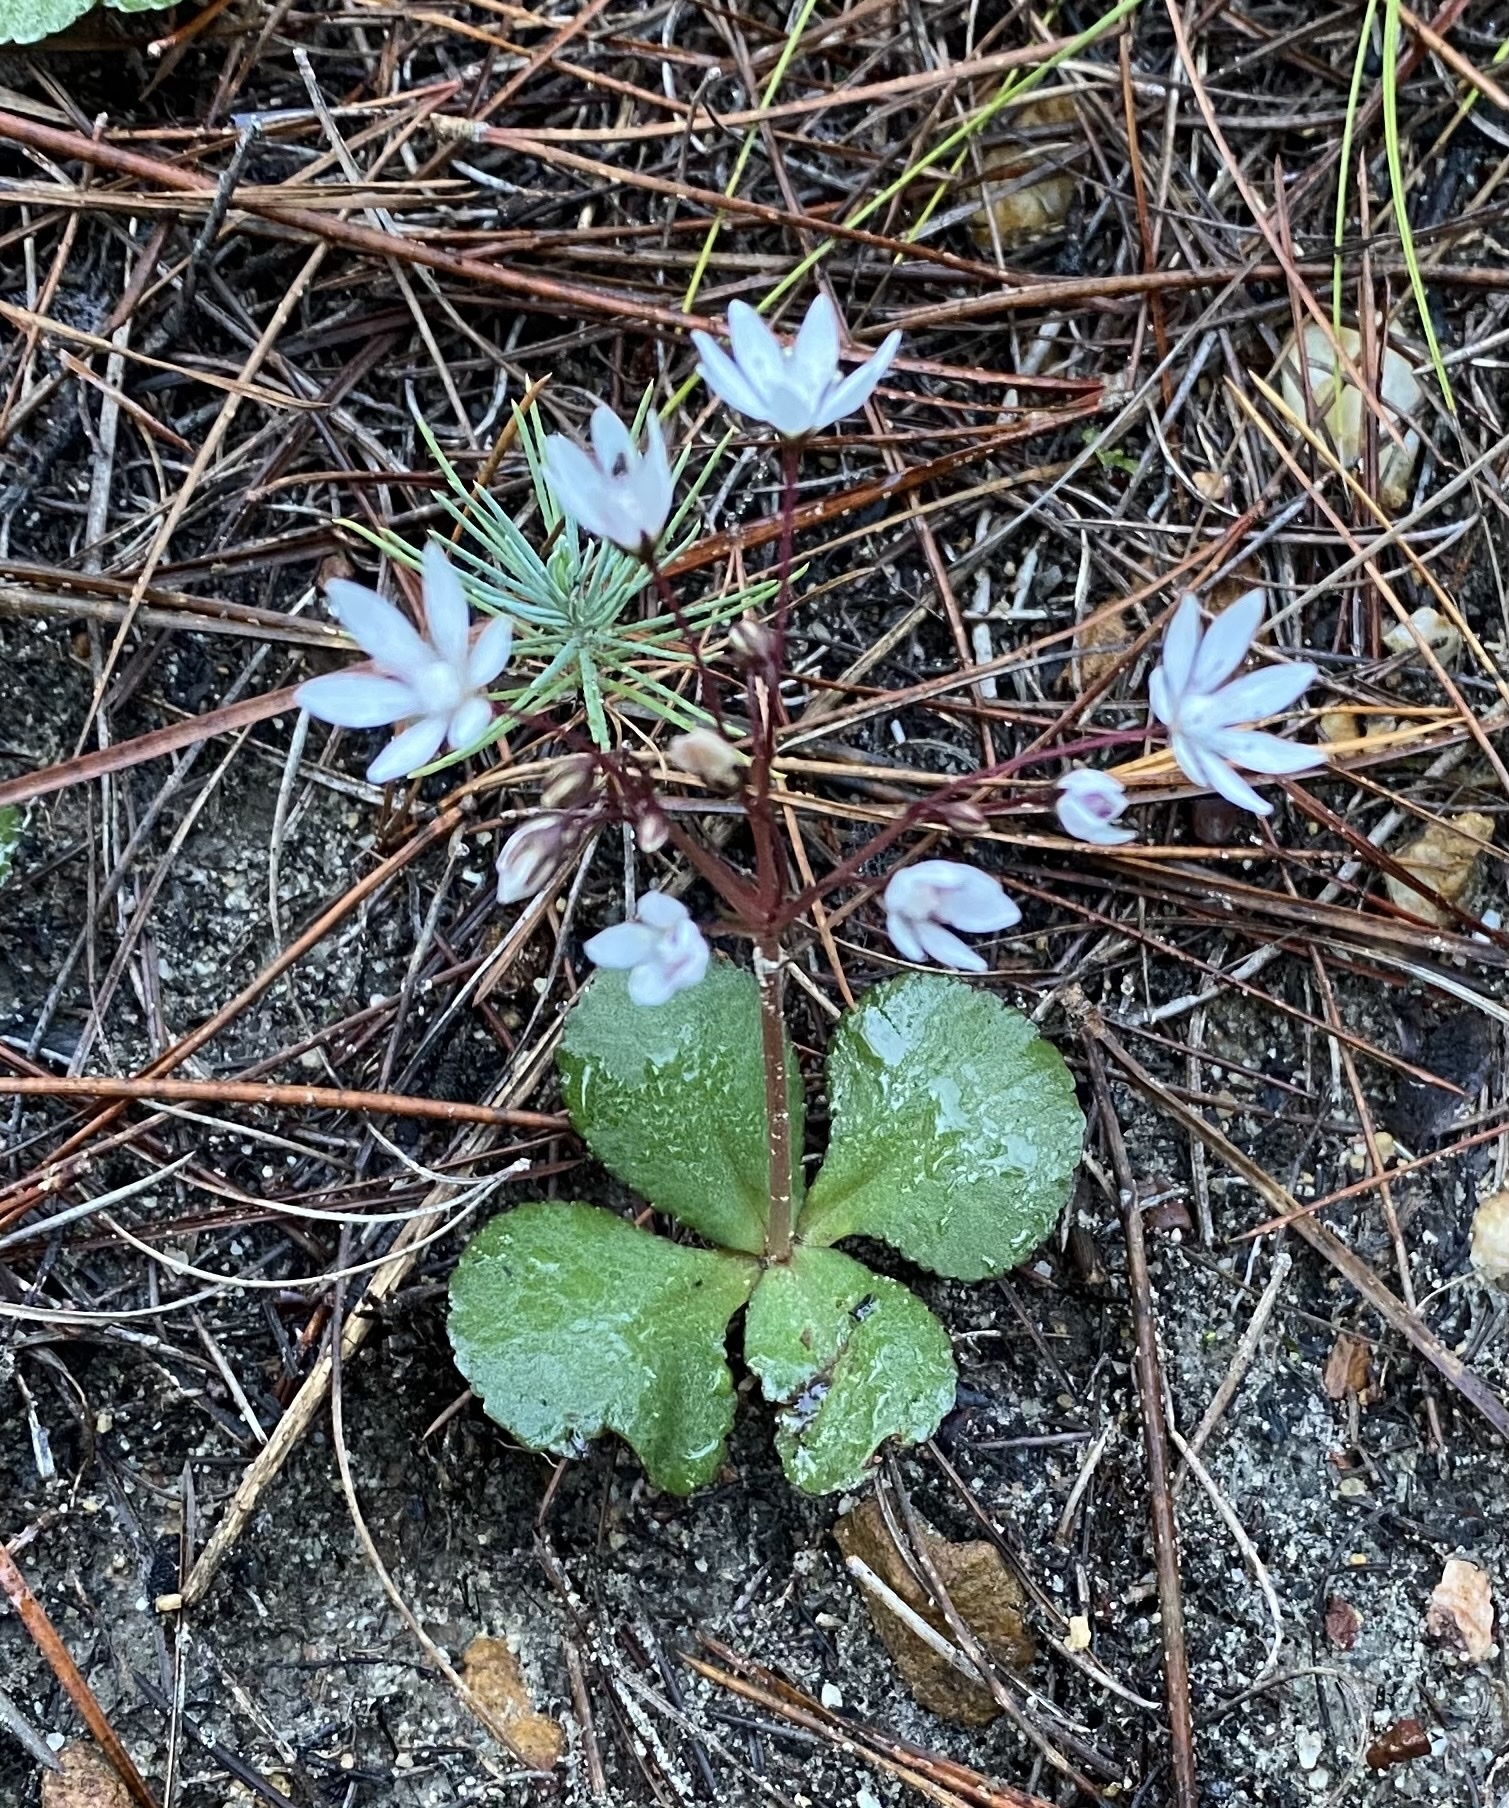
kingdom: Plantae
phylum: Tracheophyta
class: Magnoliopsida
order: Saxifragales
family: Crassulaceae
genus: Crassula
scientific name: Crassula capensis
